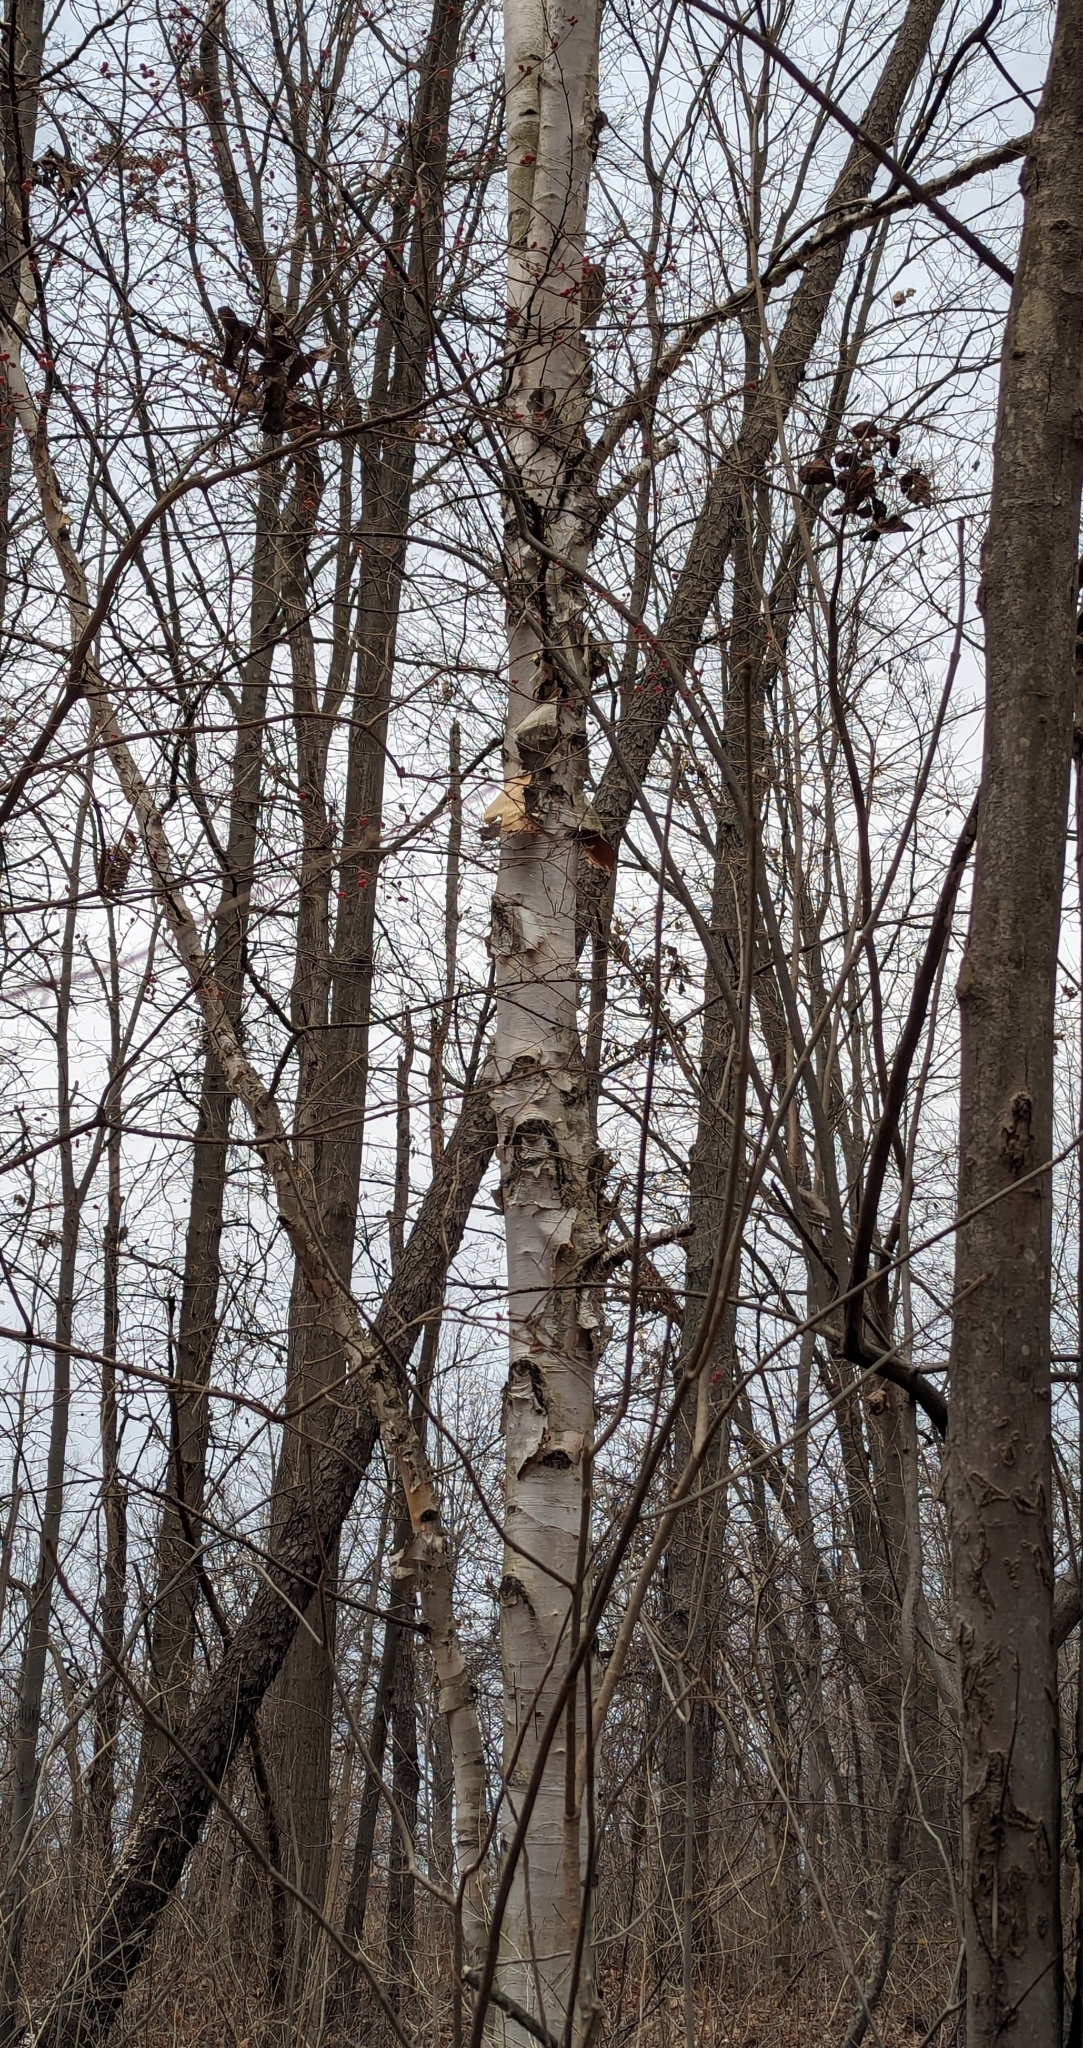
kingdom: Plantae
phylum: Tracheophyta
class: Magnoliopsida
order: Fagales
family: Betulaceae
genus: Betula
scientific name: Betula papyrifera
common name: Paper birch
